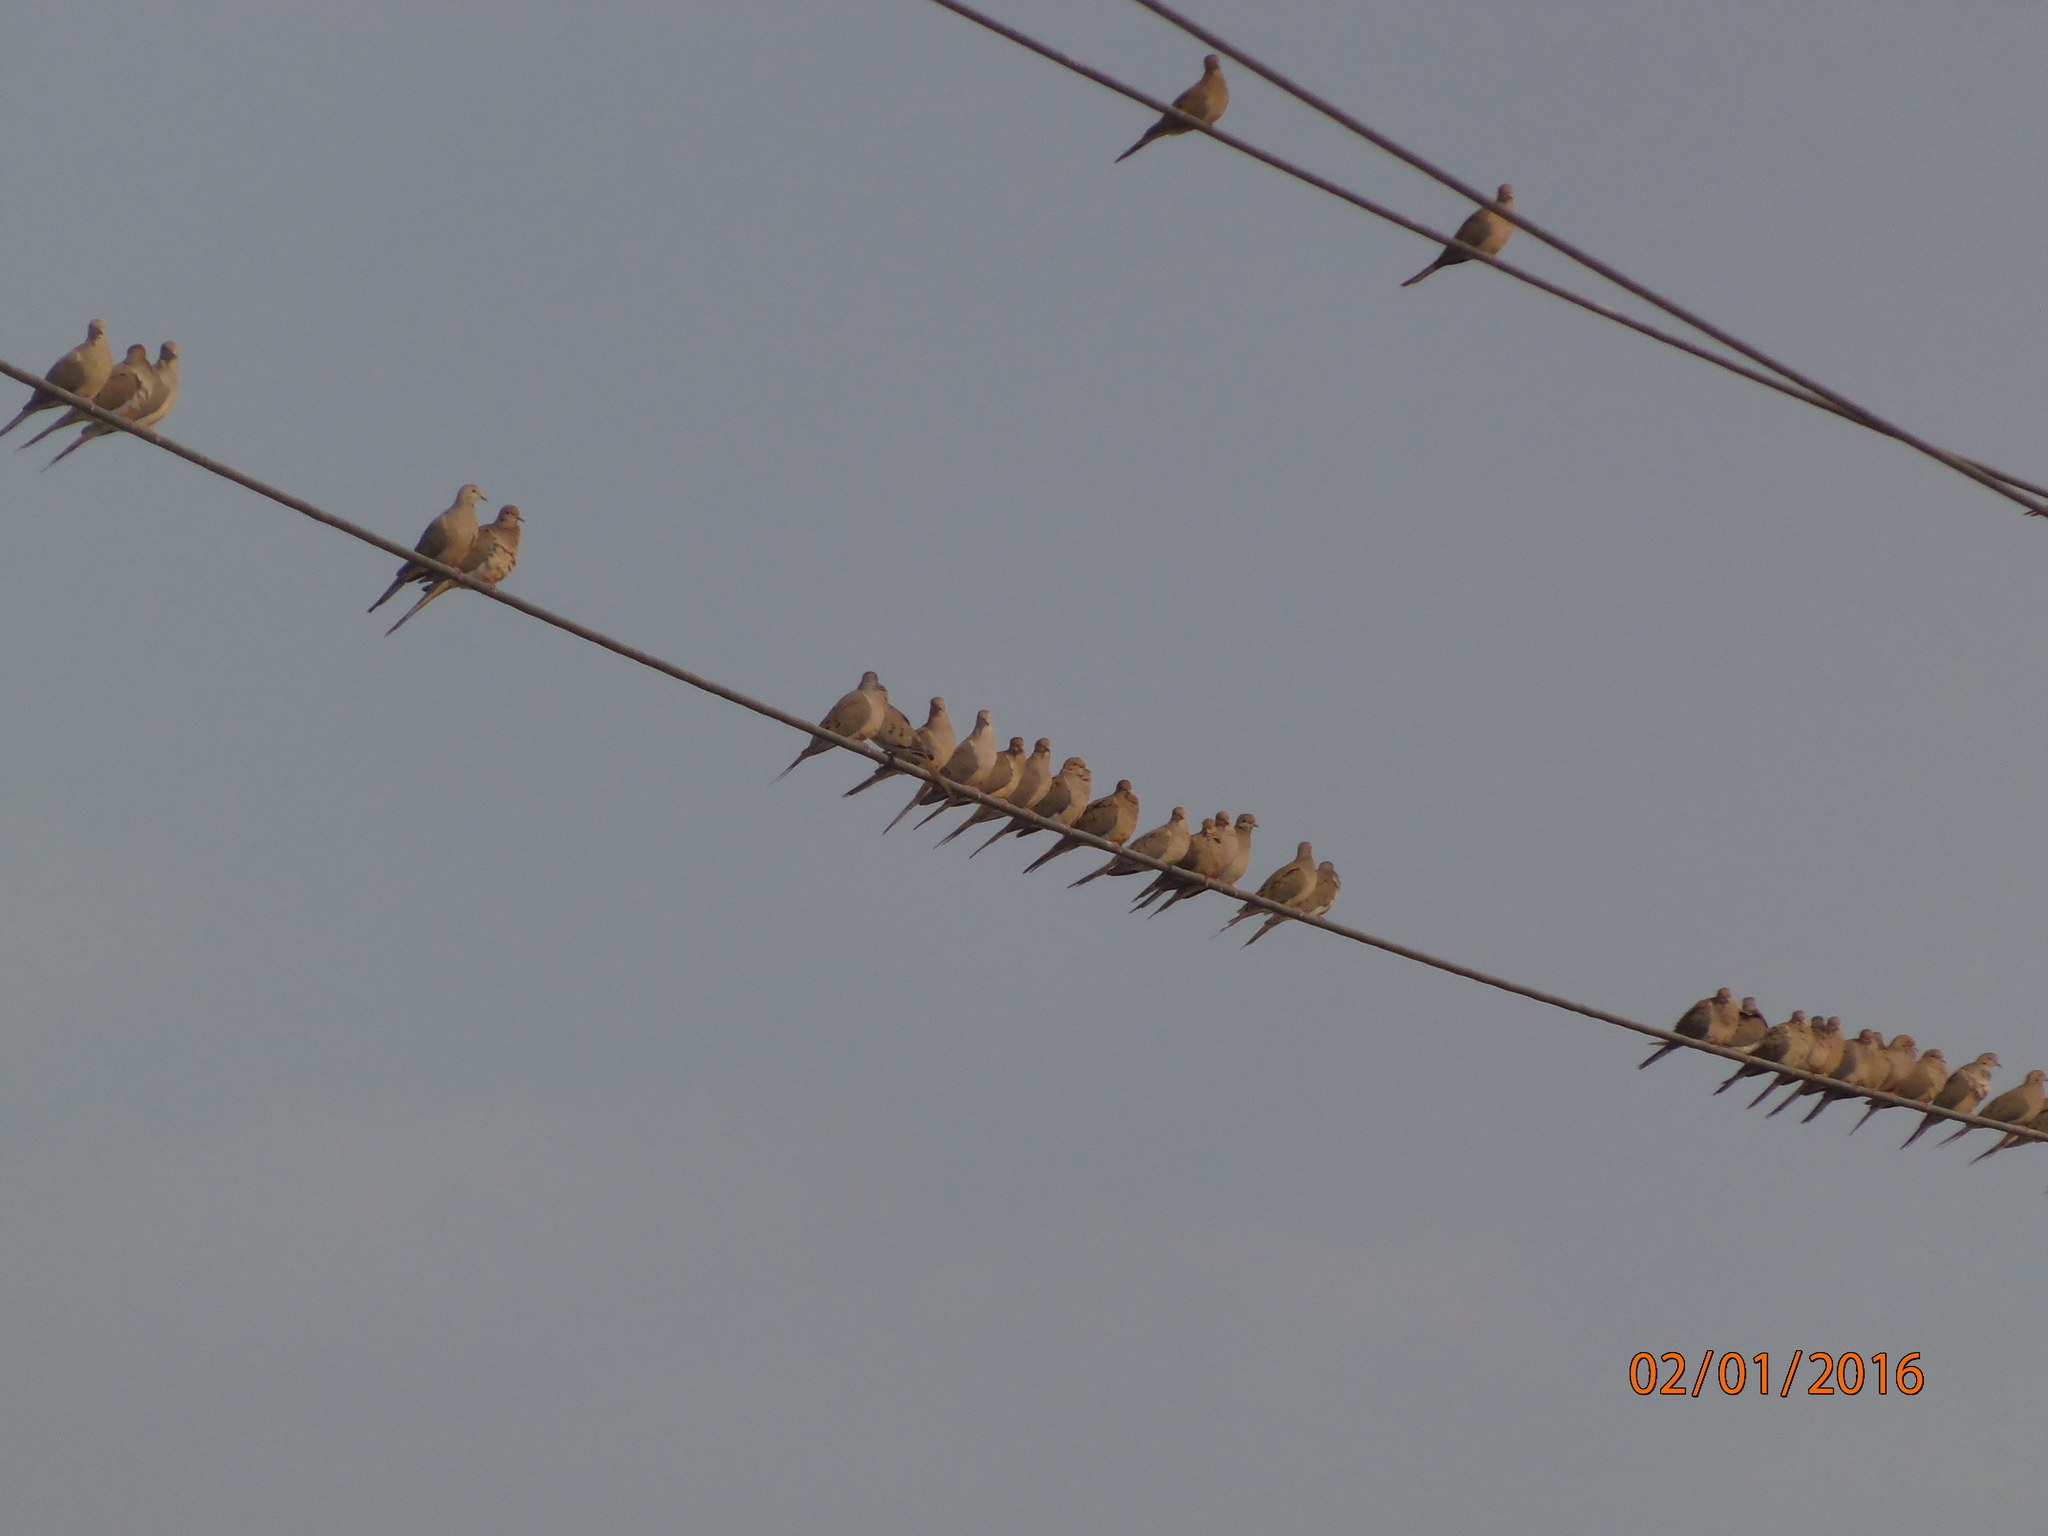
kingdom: Animalia
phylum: Chordata
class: Aves
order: Columbiformes
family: Columbidae
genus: Zenaida
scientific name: Zenaida macroura
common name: Mourning dove
